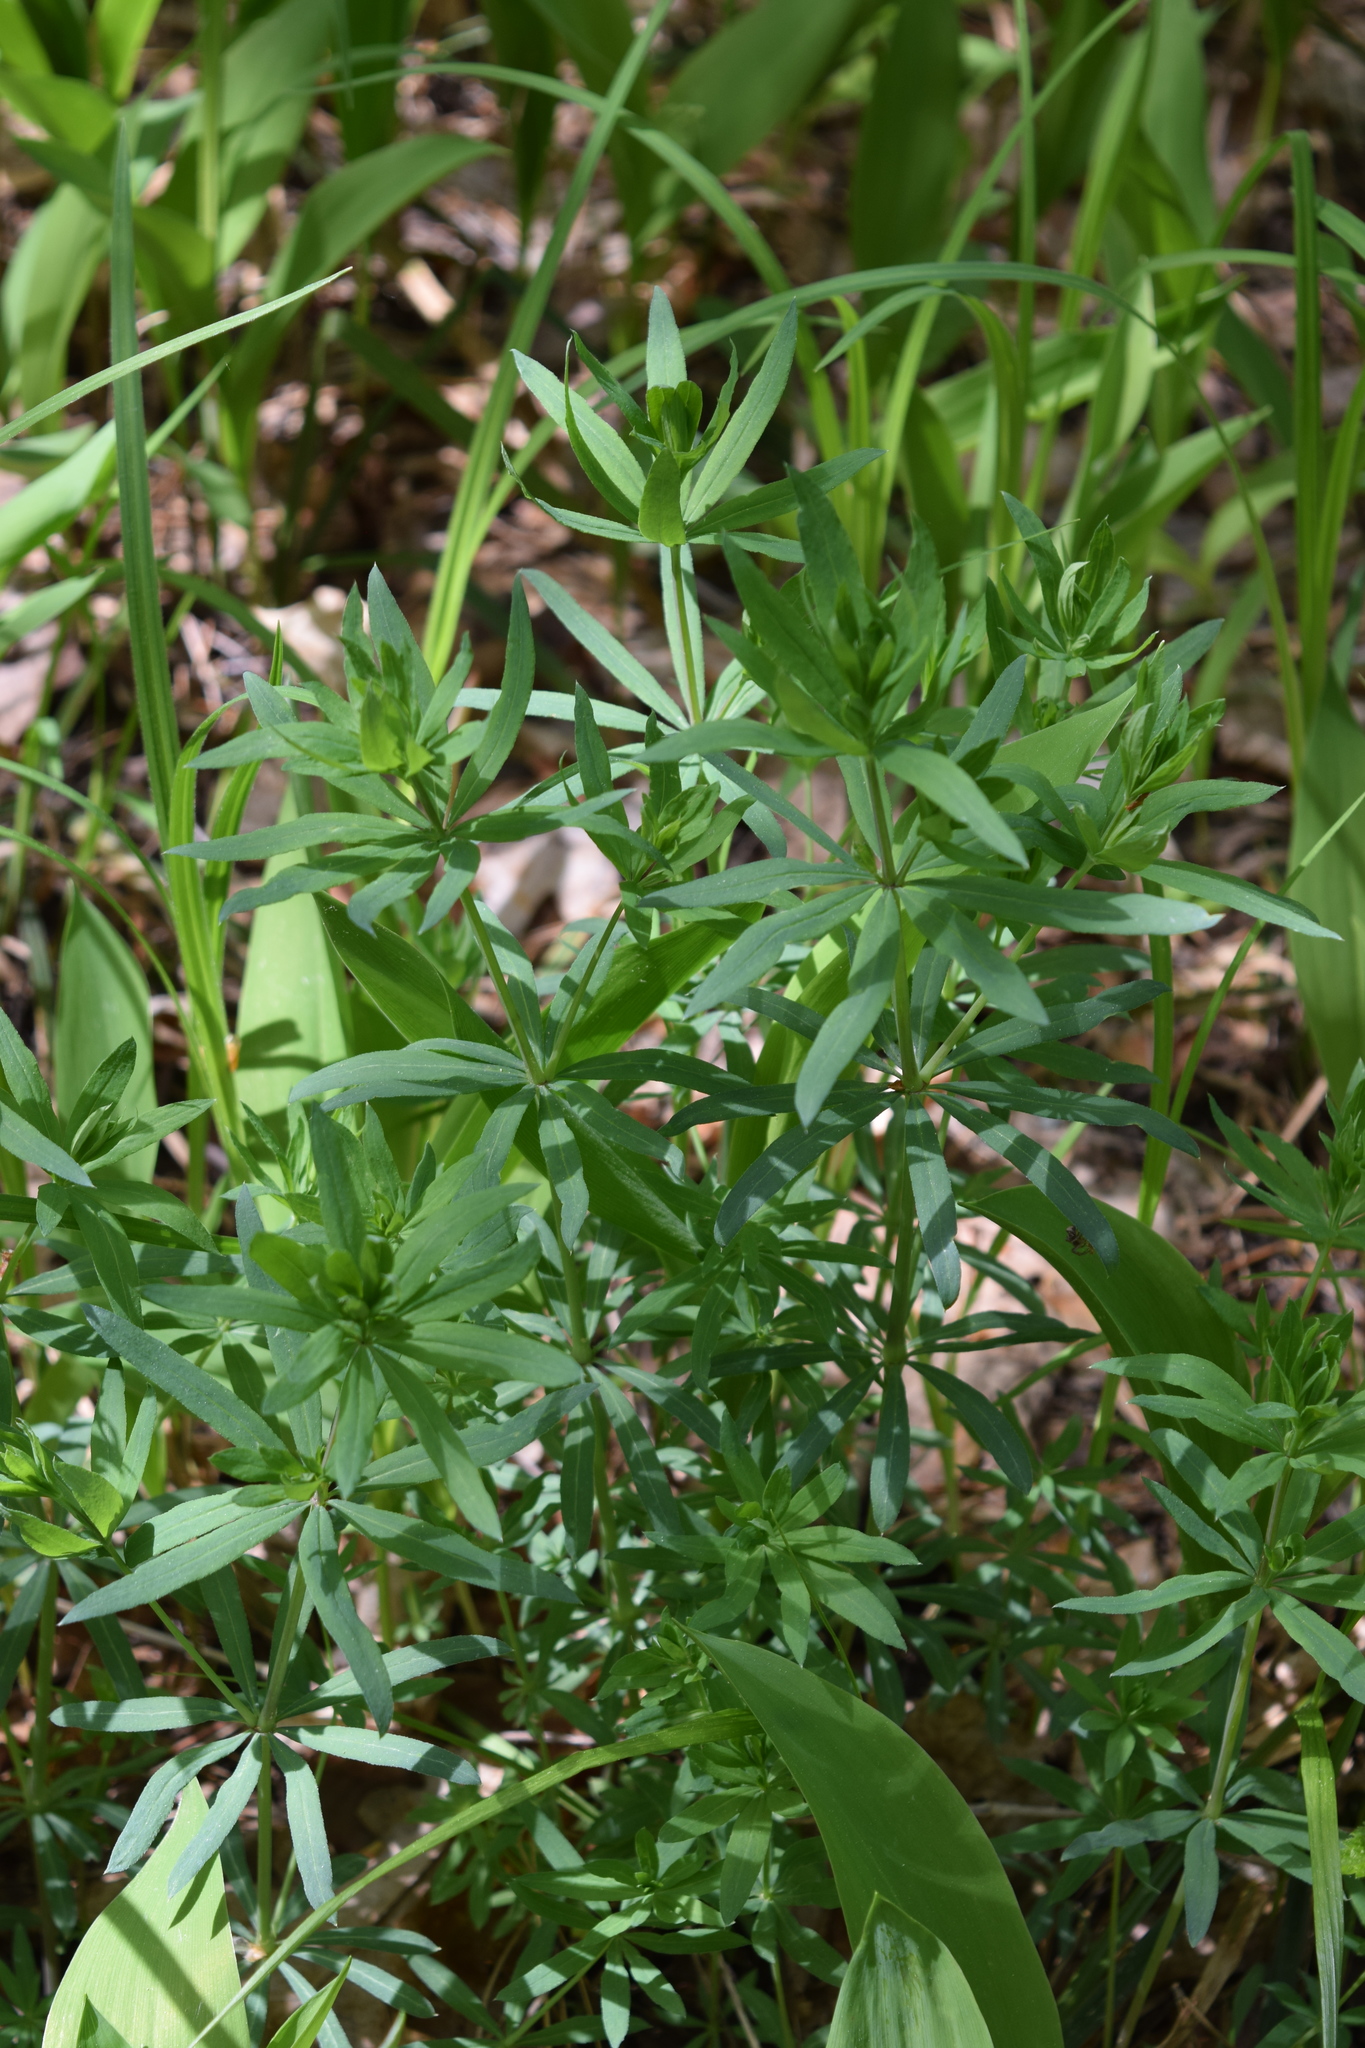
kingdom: Plantae
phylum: Tracheophyta
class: Magnoliopsida
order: Gentianales
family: Rubiaceae
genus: Galium
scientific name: Galium intermedium
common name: Bedstraw
